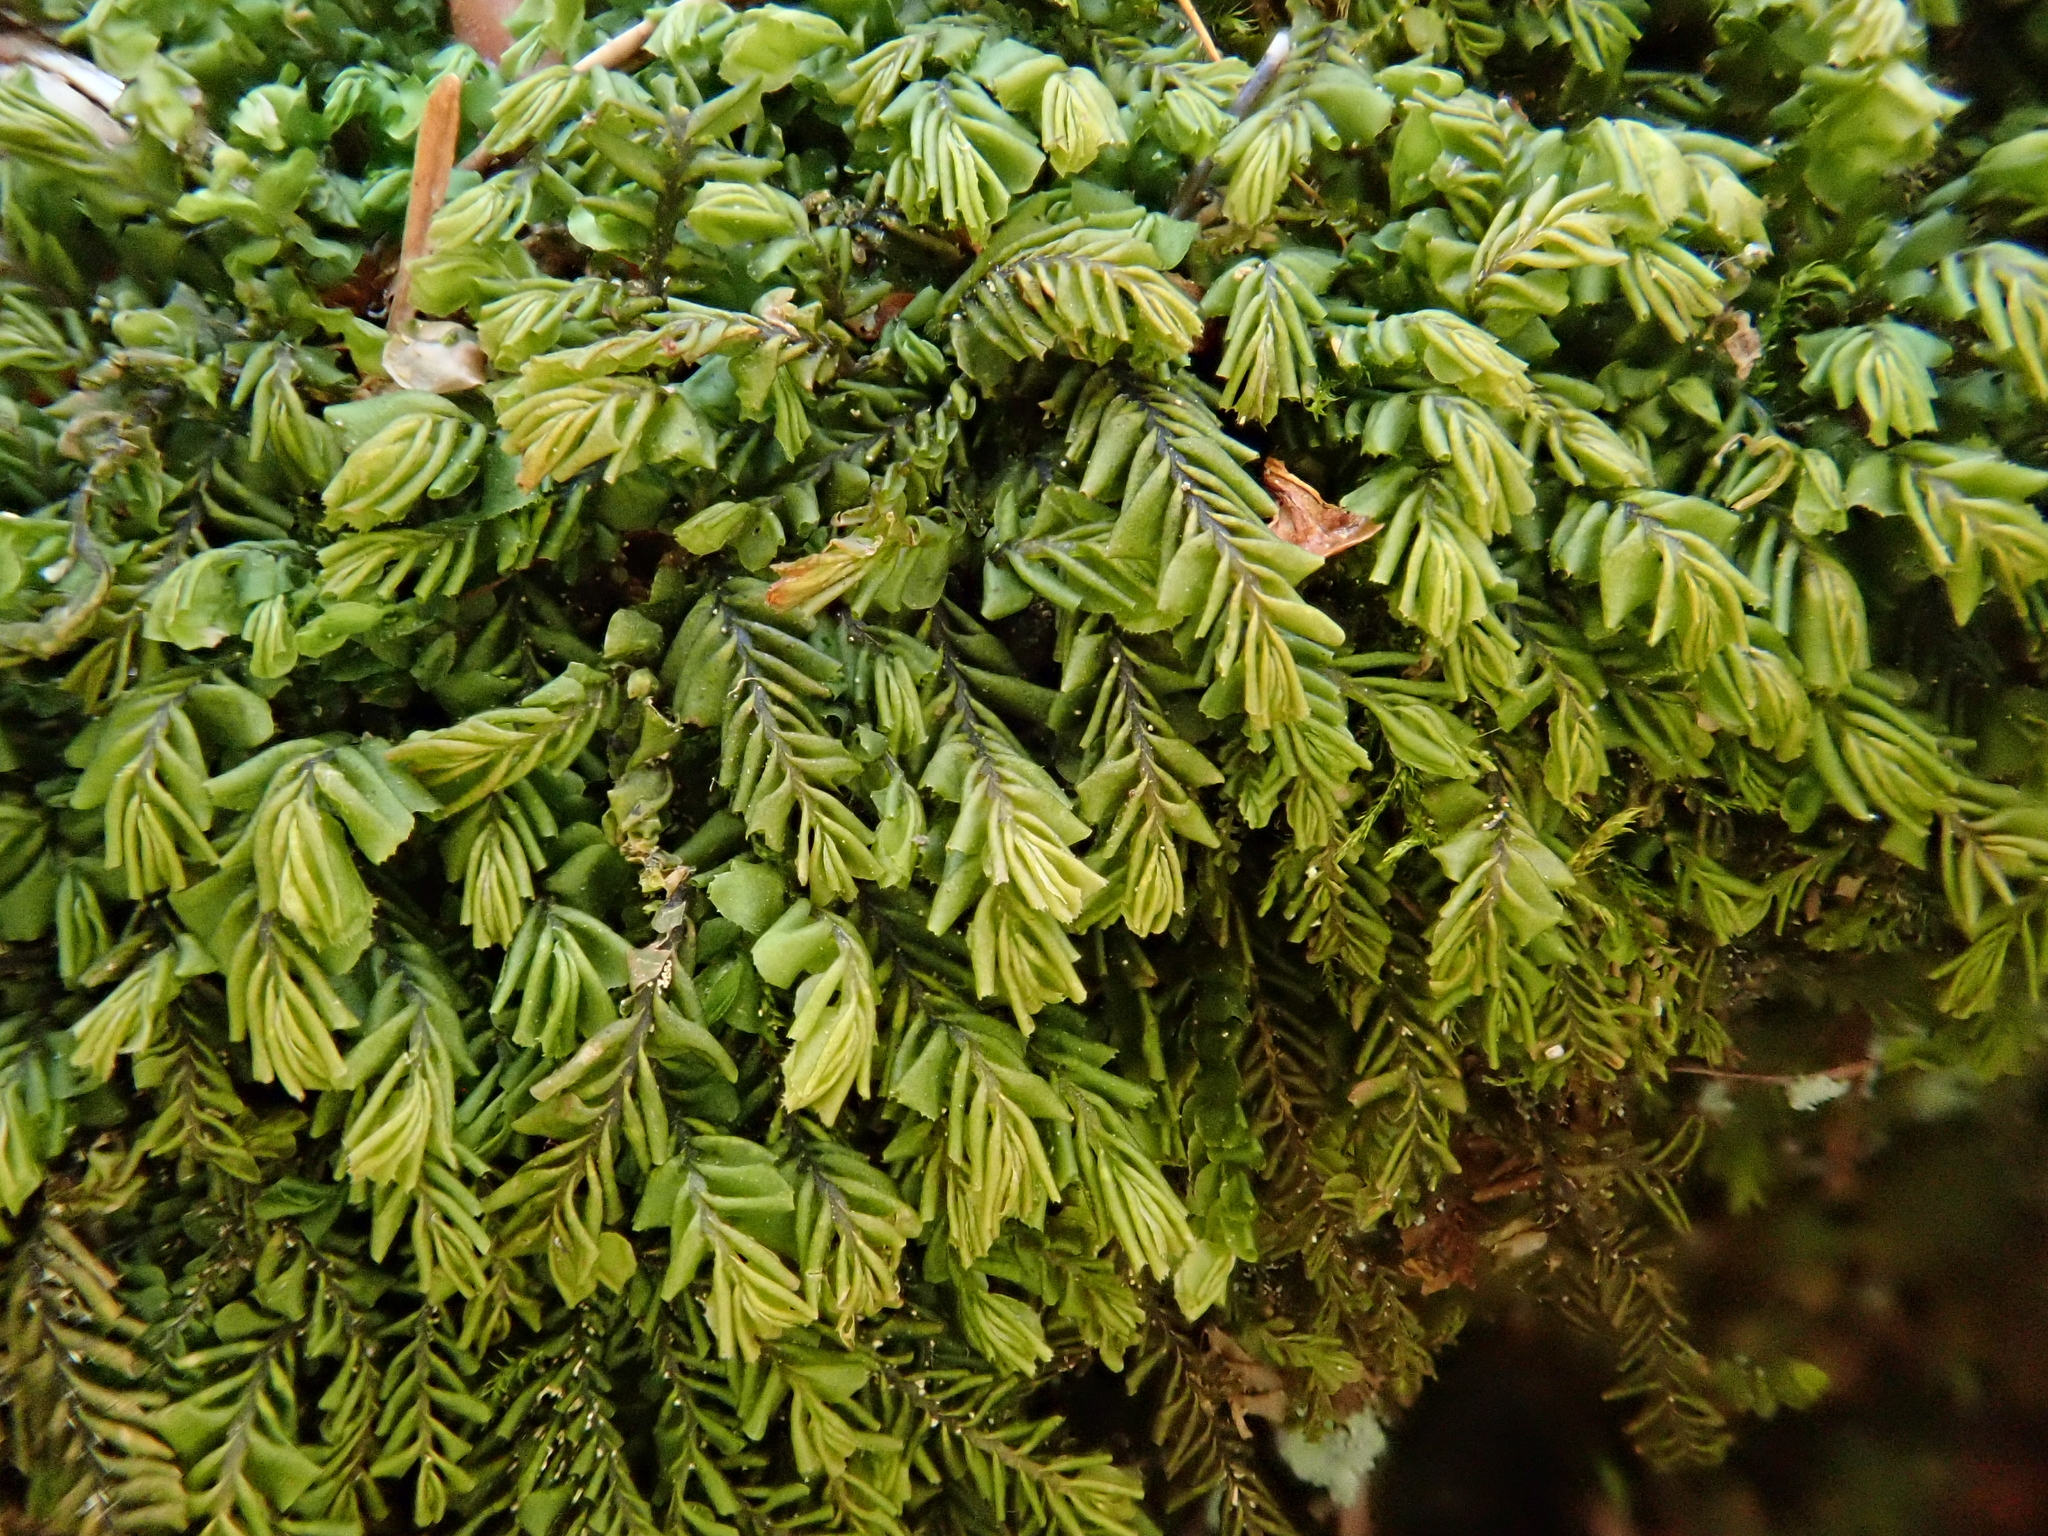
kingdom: Plantae
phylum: Marchantiophyta
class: Jungermanniopsida
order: Jungermanniales
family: Plagiochilaceae
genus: Plagiochila
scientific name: Plagiochila porelloides
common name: Lesser featherwort
